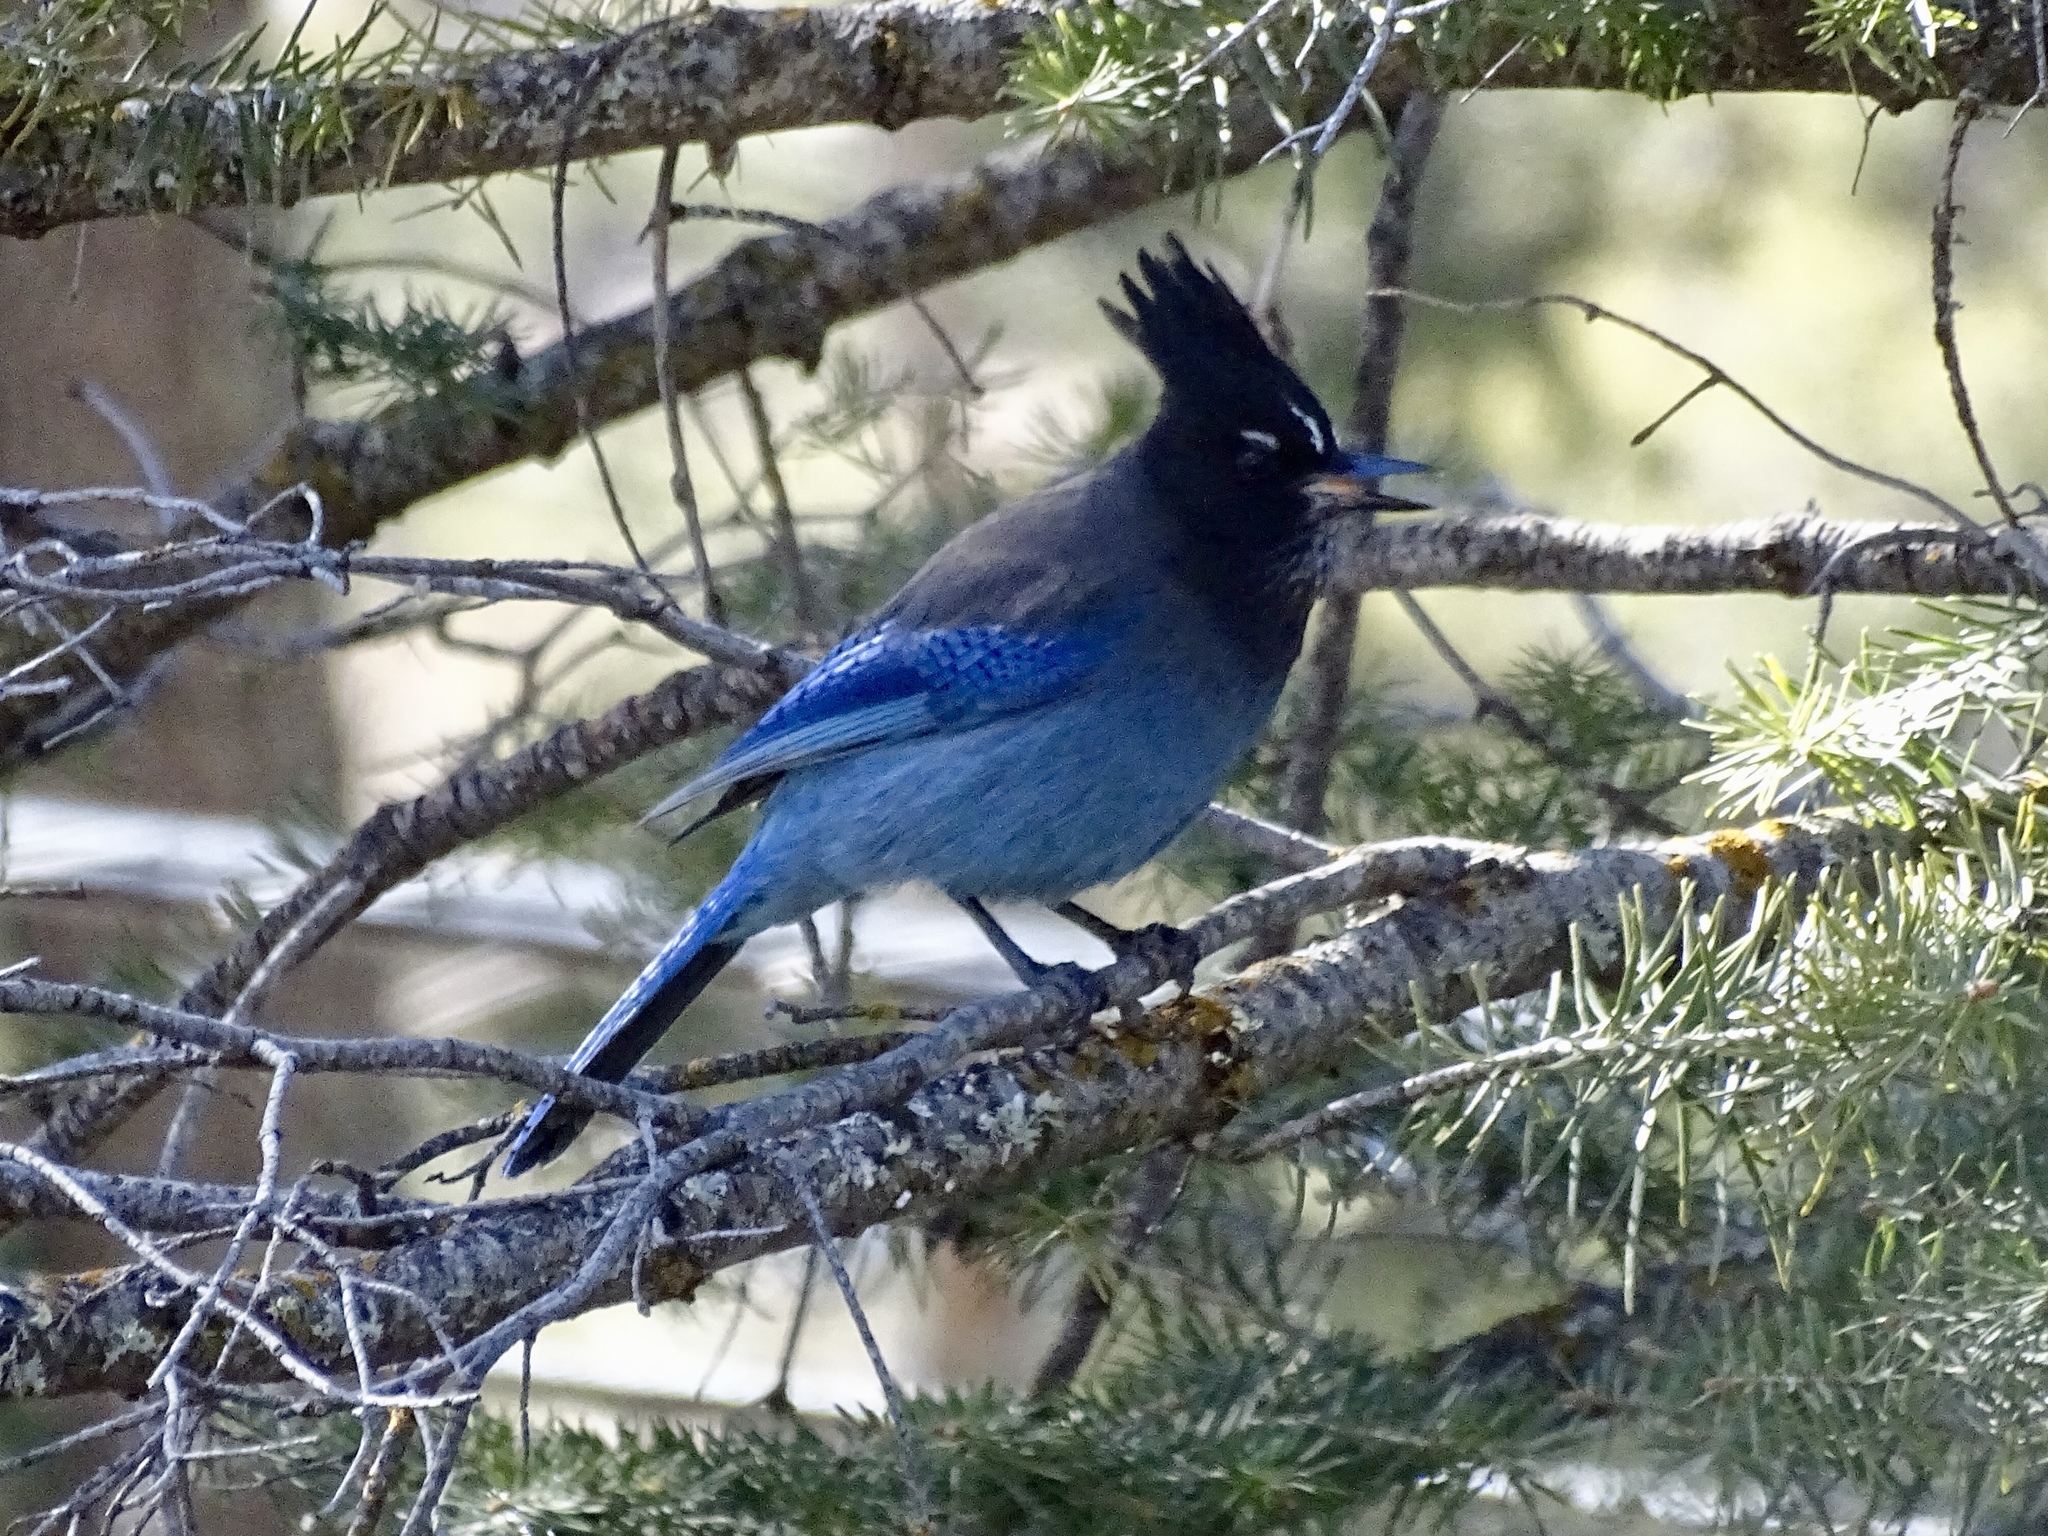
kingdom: Animalia
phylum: Chordata
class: Aves
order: Passeriformes
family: Corvidae
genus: Cyanocitta
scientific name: Cyanocitta stelleri
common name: Steller's jay
